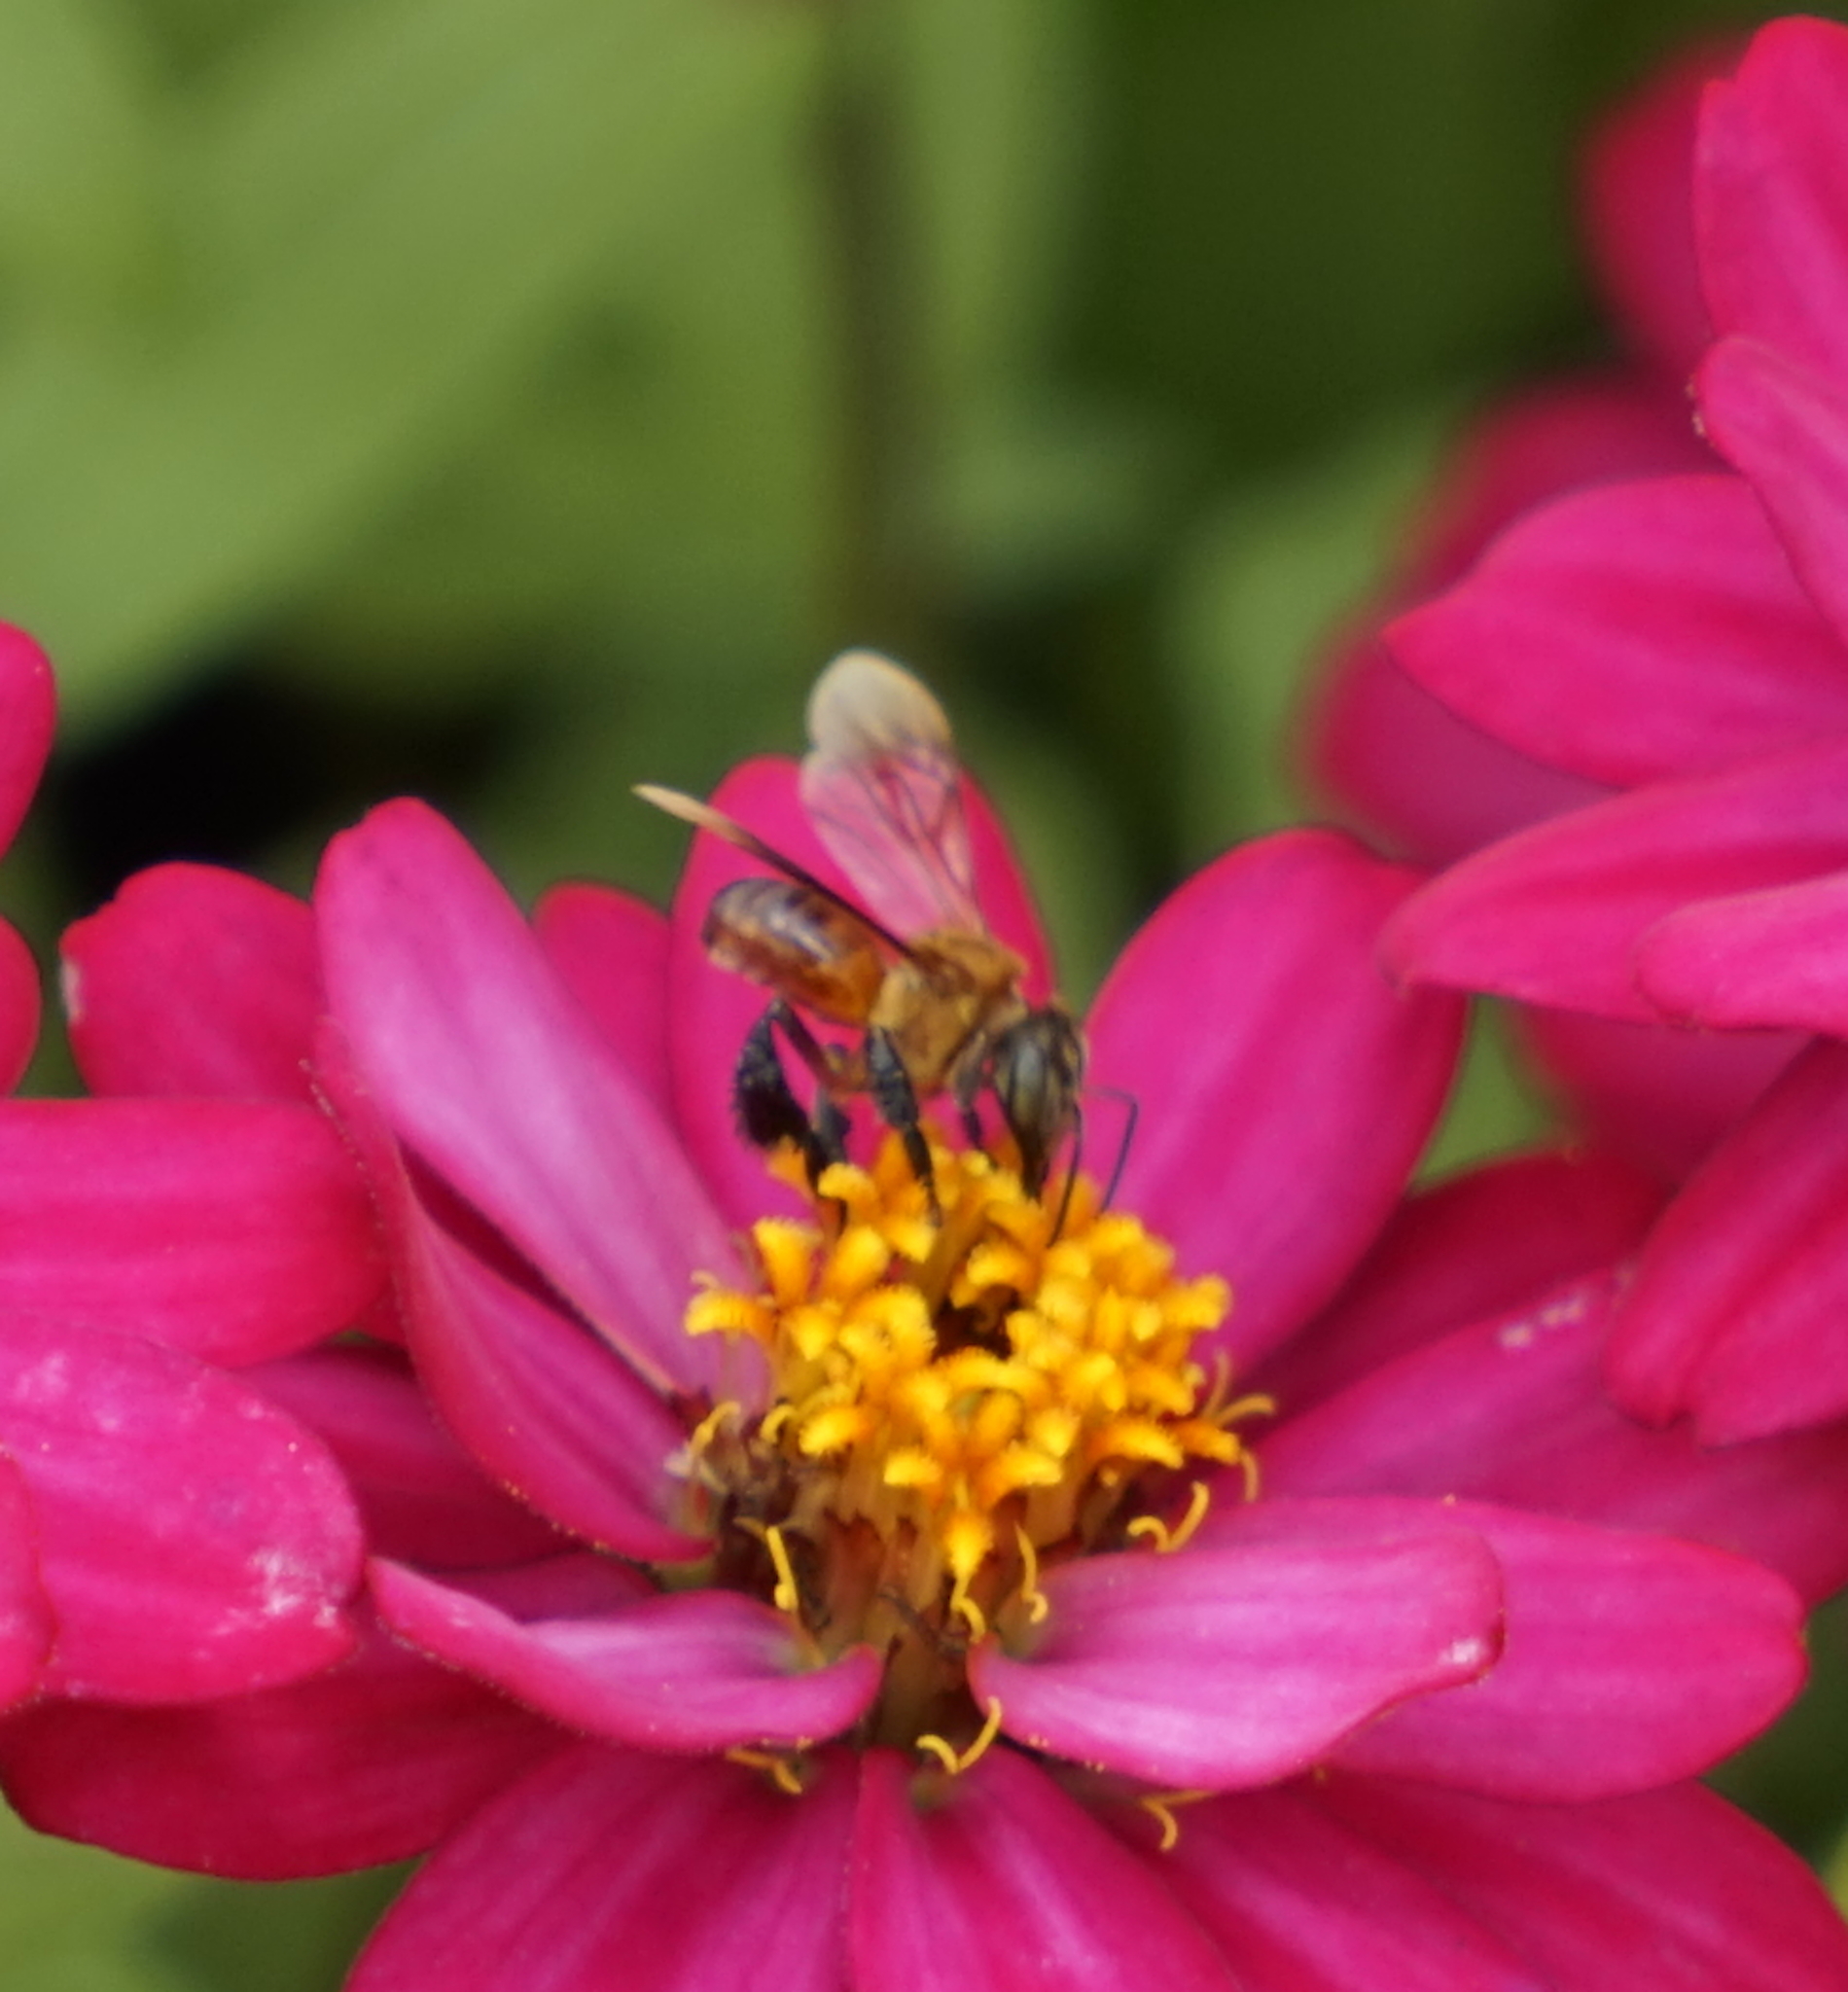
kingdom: Animalia
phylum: Arthropoda
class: Insecta
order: Hymenoptera
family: Apidae
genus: Geniotrigona
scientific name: Geniotrigona thoracica
